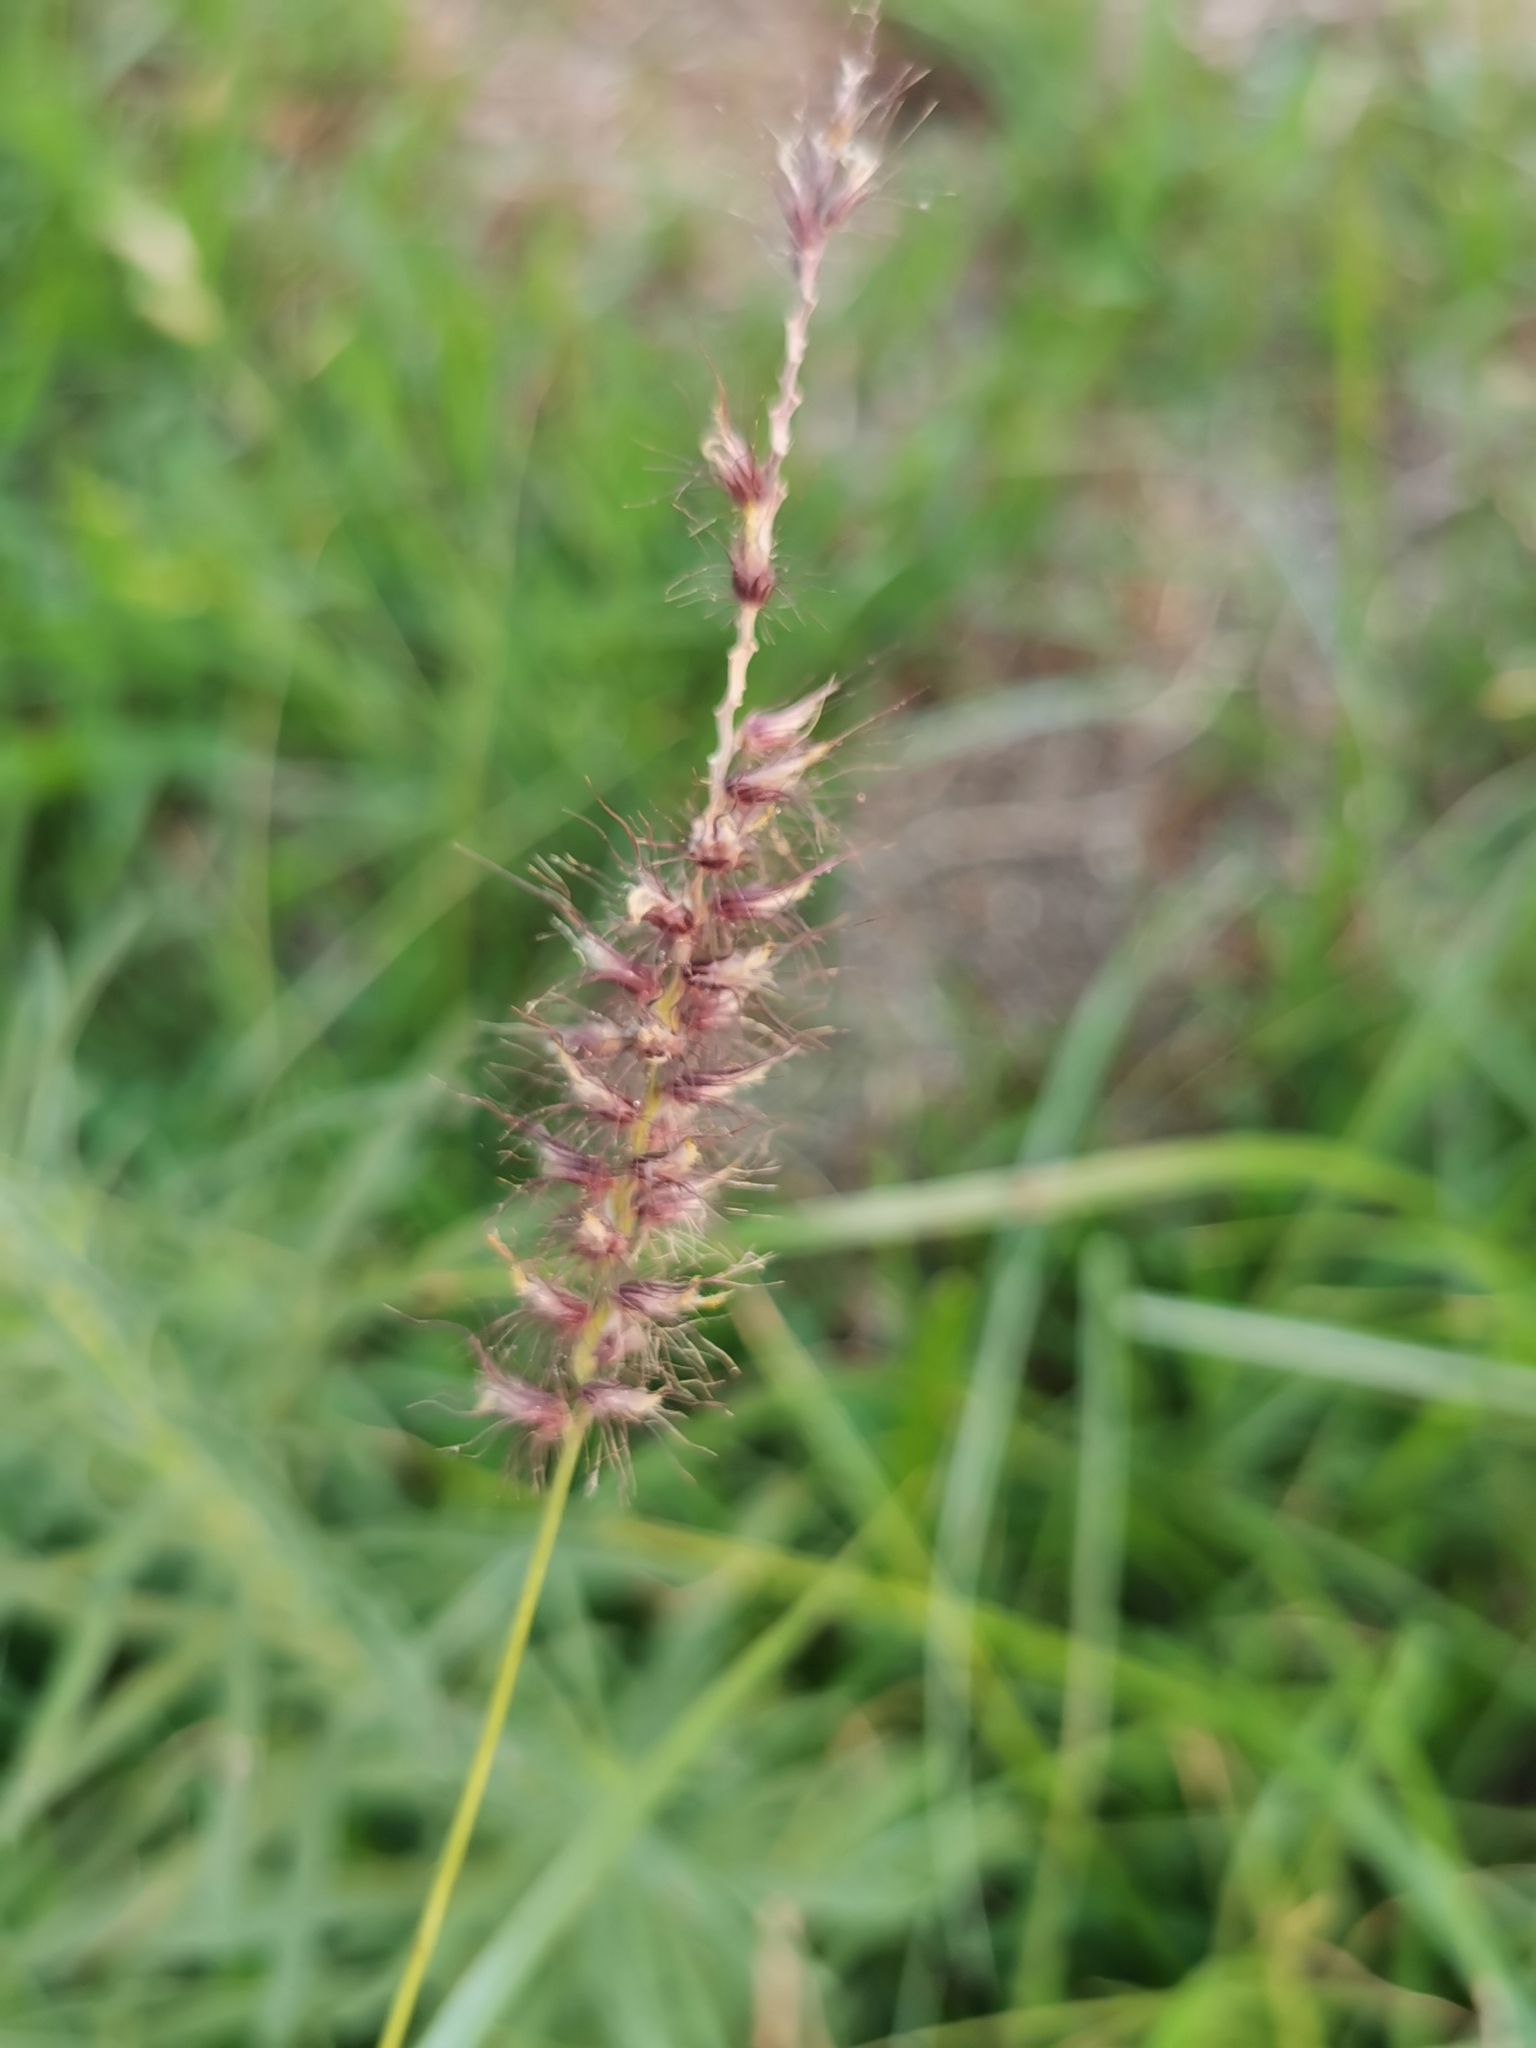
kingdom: Plantae
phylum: Tracheophyta
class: Liliopsida
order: Poales
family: Poaceae
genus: Cenchrus
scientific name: Cenchrus ciliaris
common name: Buffelgrass
